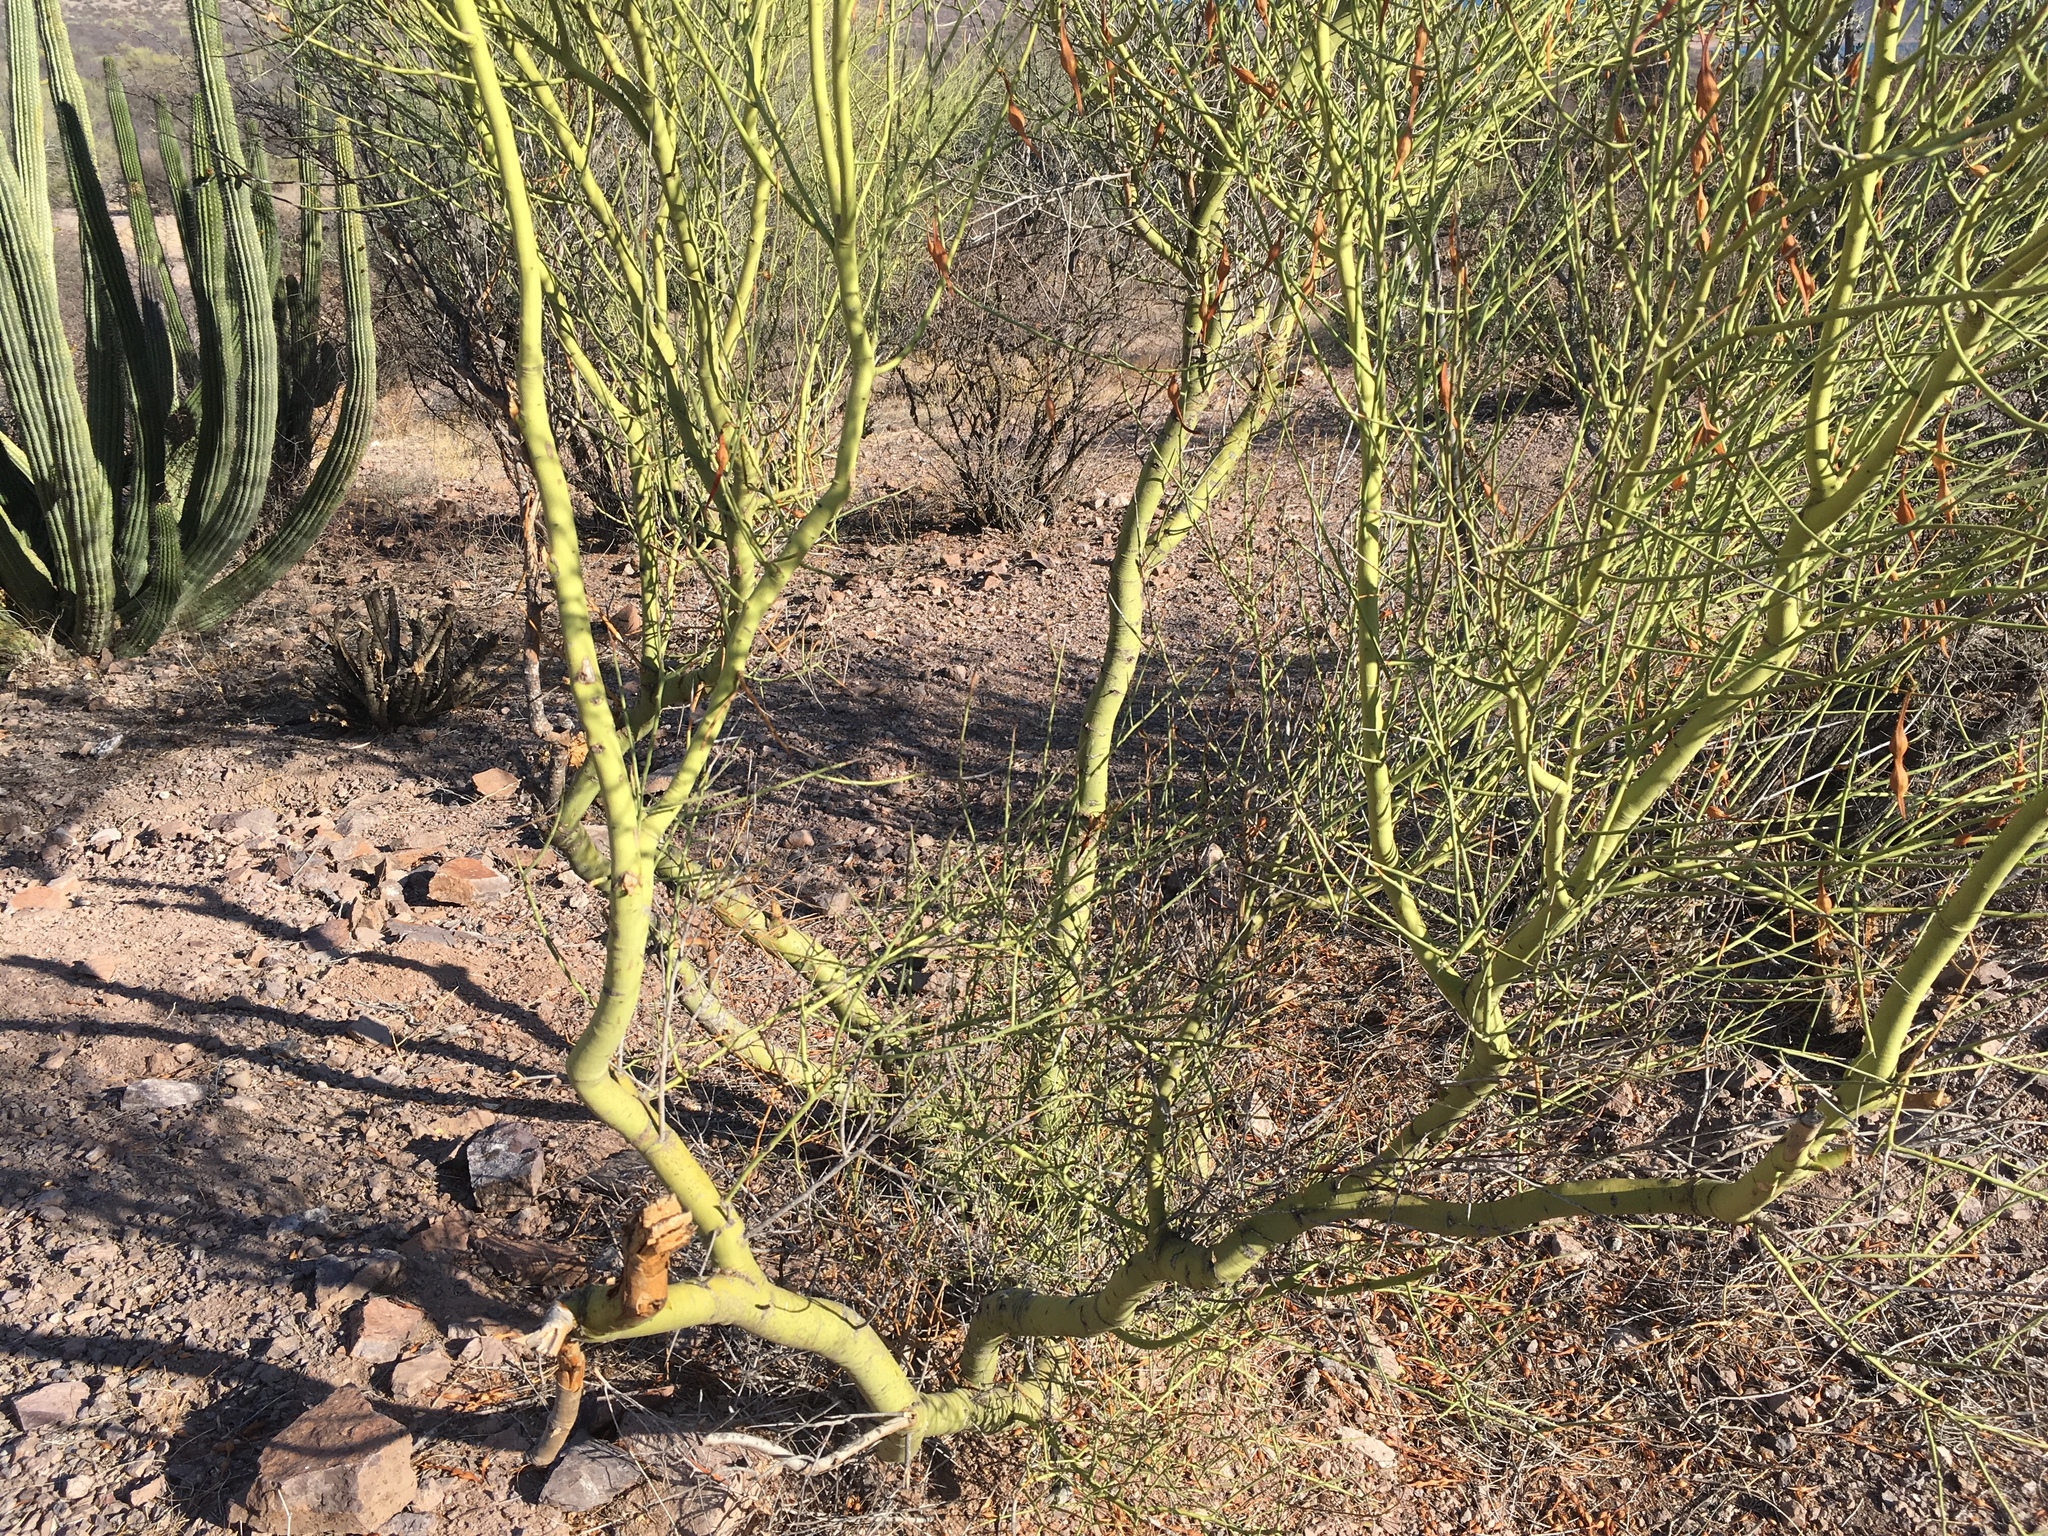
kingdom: Plantae
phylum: Tracheophyta
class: Magnoliopsida
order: Fabales
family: Fabaceae
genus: Parkinsonia
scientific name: Parkinsonia microphylla
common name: Yellow paloverde
